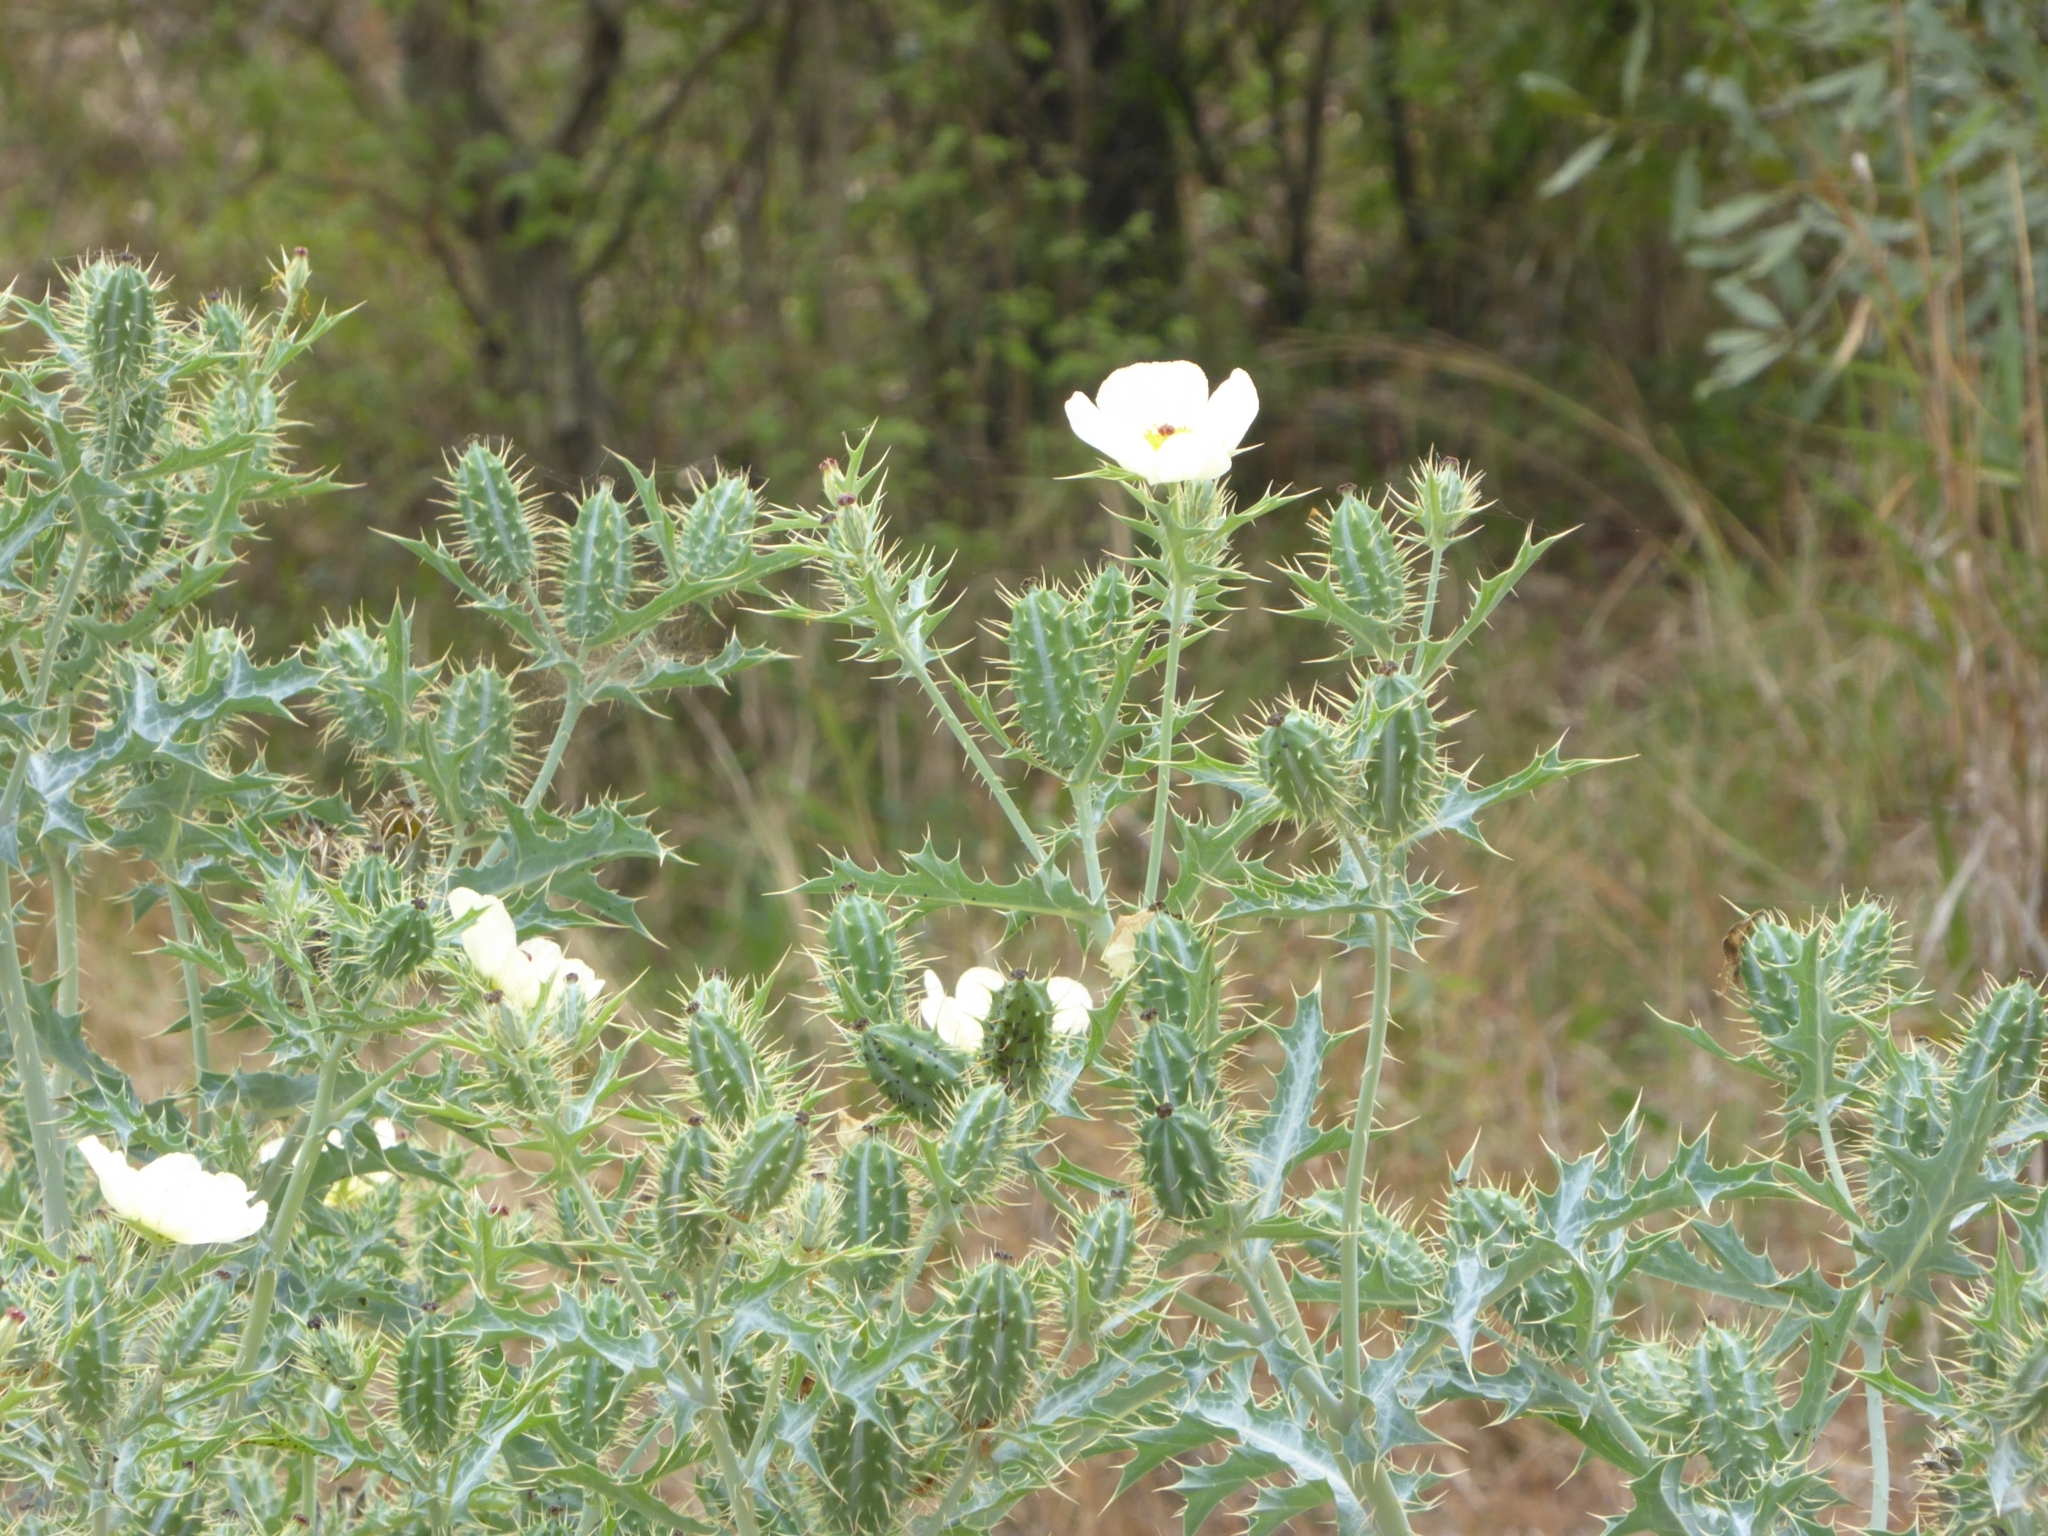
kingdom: Plantae
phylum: Tracheophyta
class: Magnoliopsida
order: Ranunculales
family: Papaveraceae
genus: Argemone
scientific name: Argemone ochroleuca
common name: White-flower mexican-poppy
